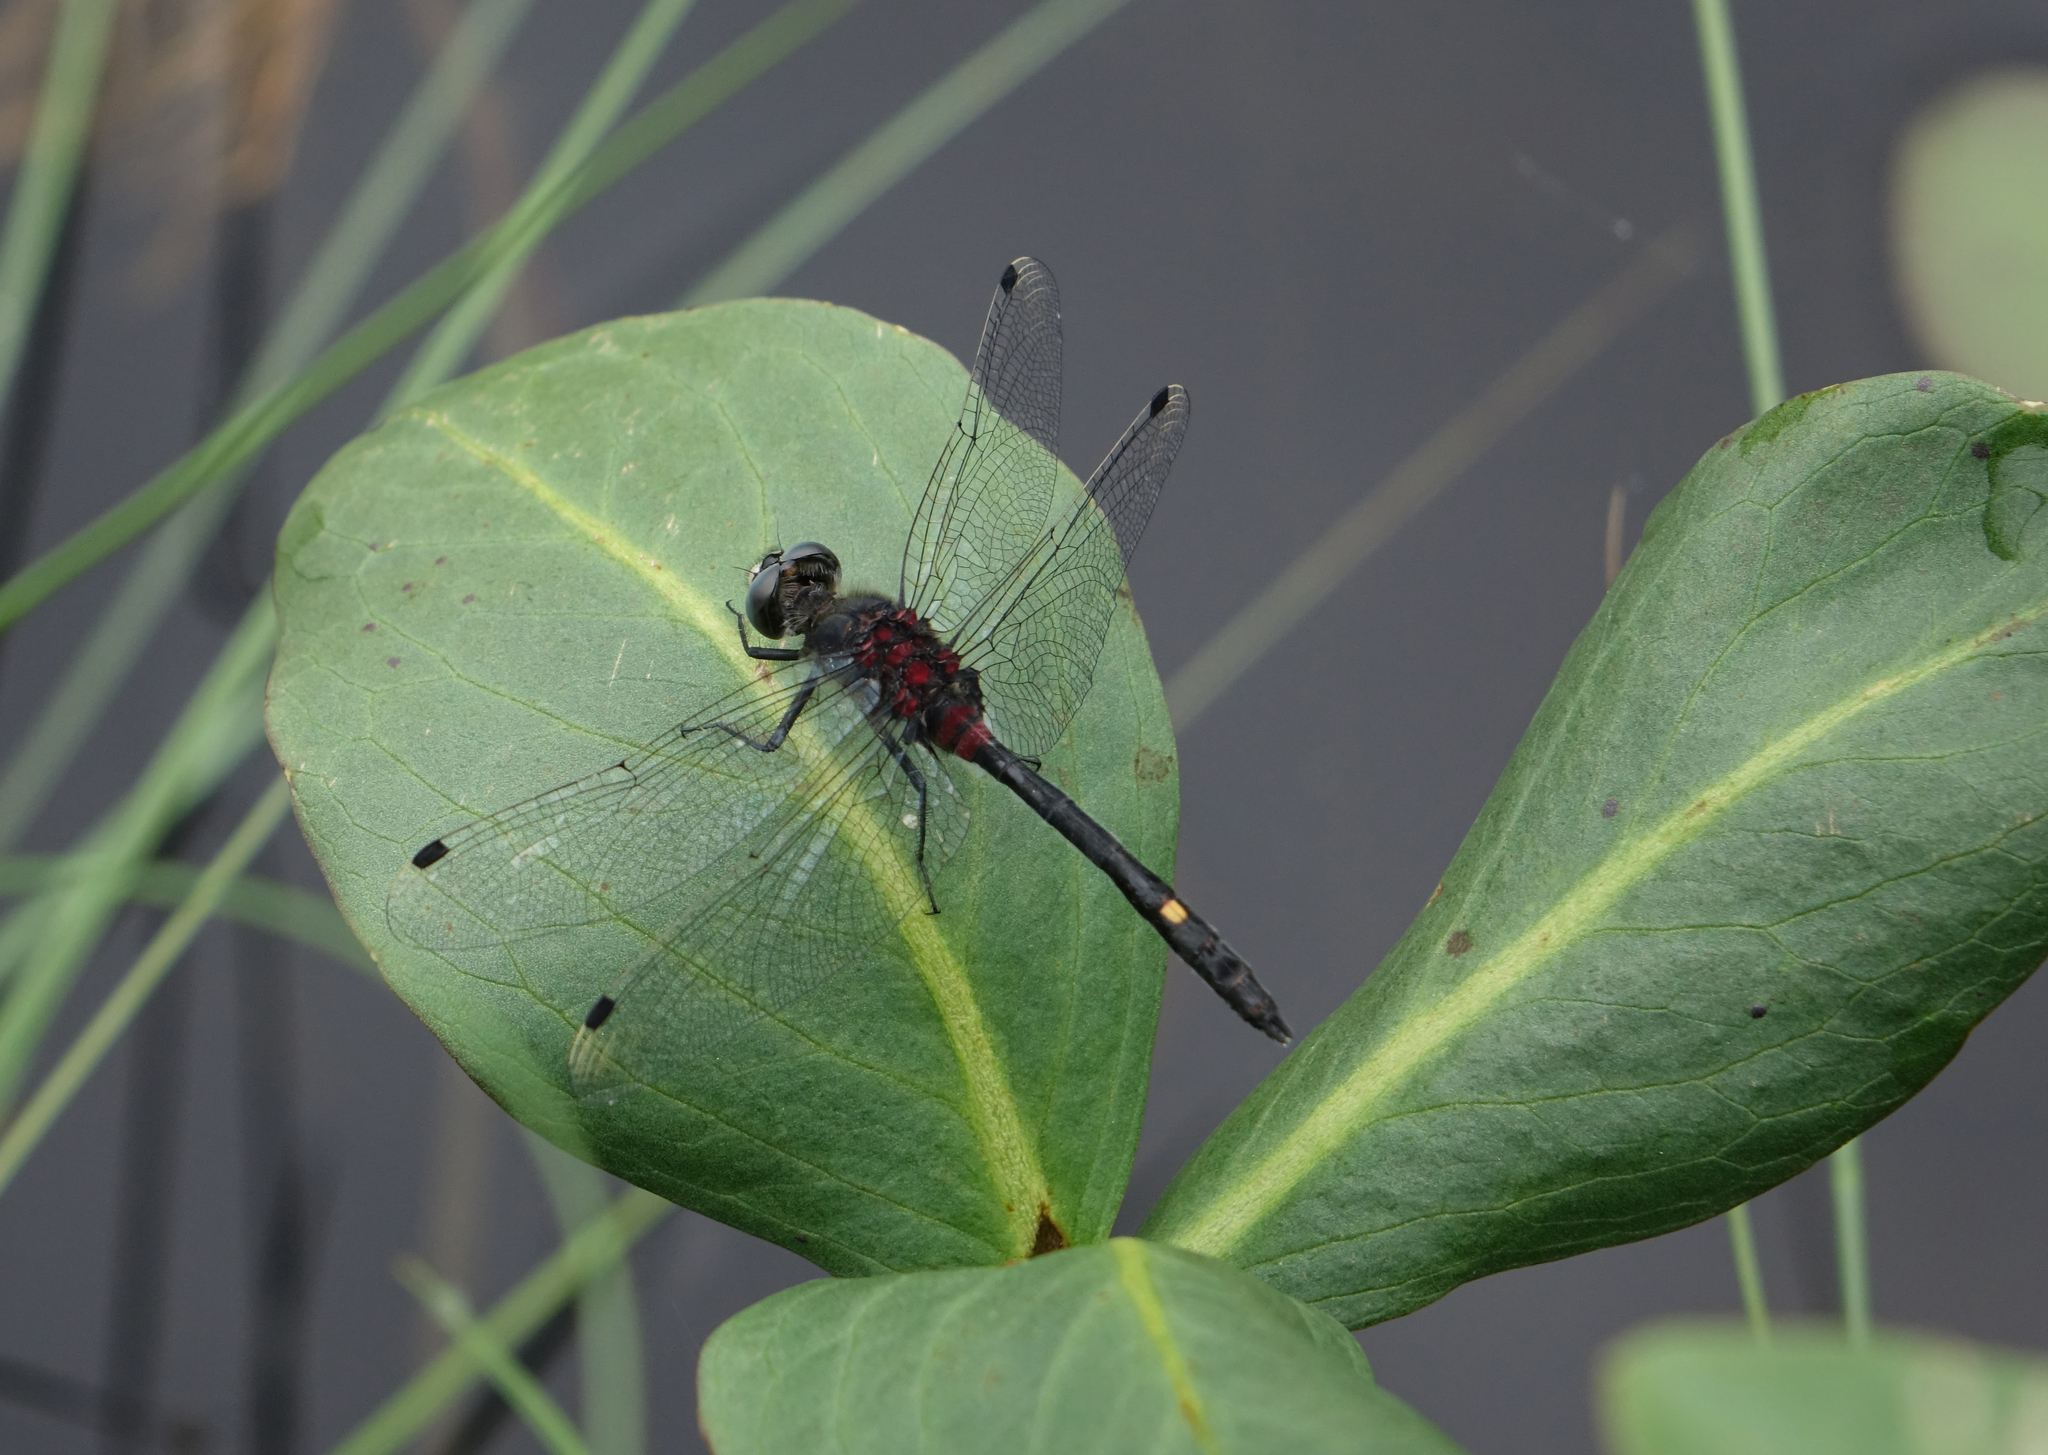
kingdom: Plantae
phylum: Tracheophyta
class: Magnoliopsida
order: Asterales
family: Menyanthaceae
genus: Menyanthes
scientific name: Menyanthes trifoliata
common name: Bogbean
